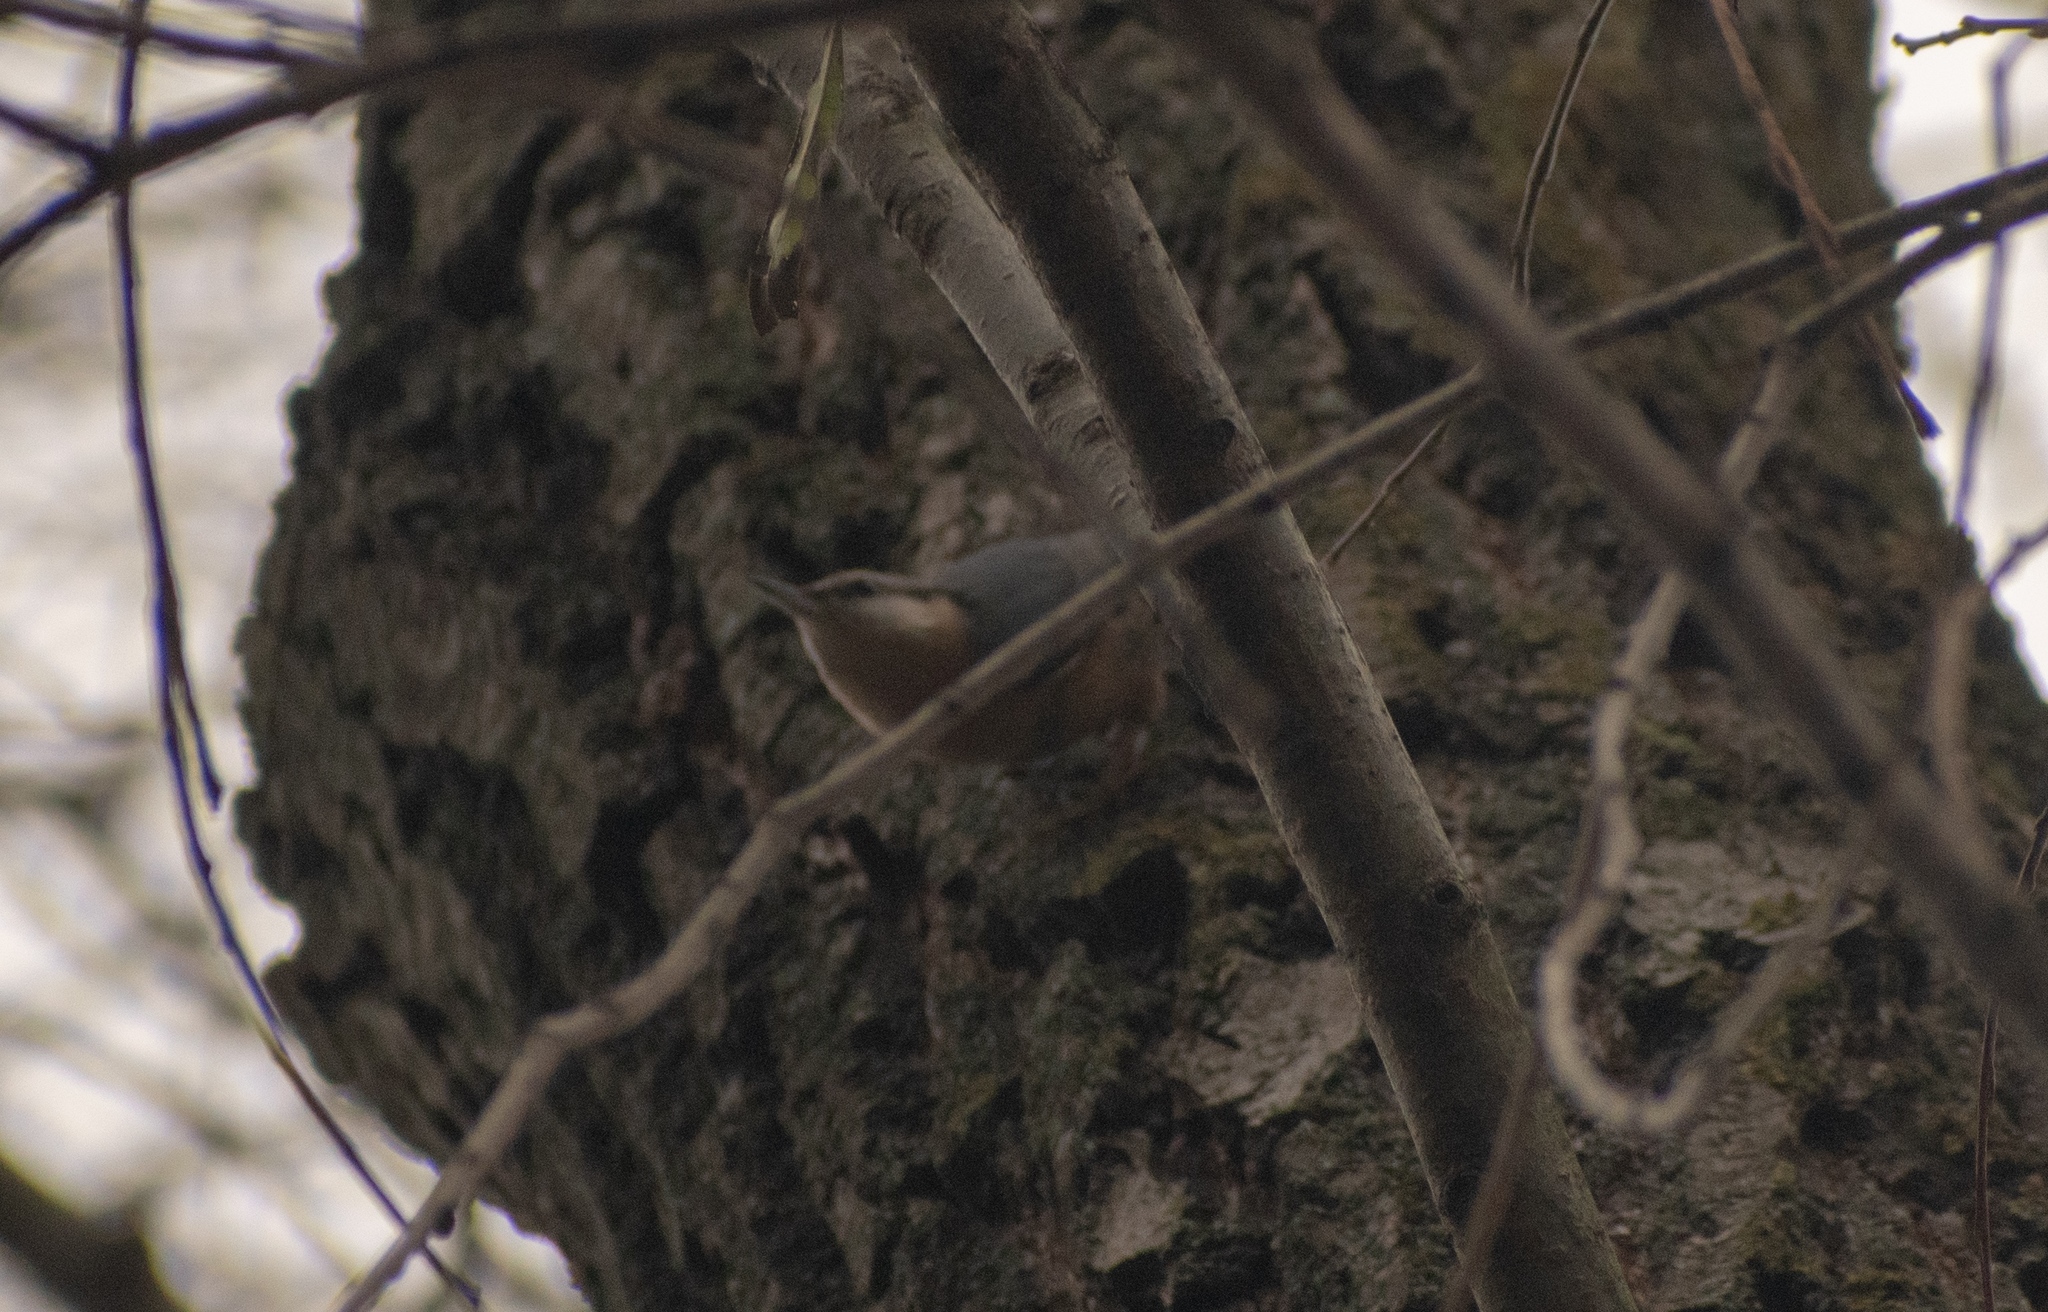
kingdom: Animalia
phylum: Chordata
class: Aves
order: Passeriformes
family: Sittidae
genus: Sitta
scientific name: Sitta europaea
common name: Eurasian nuthatch
